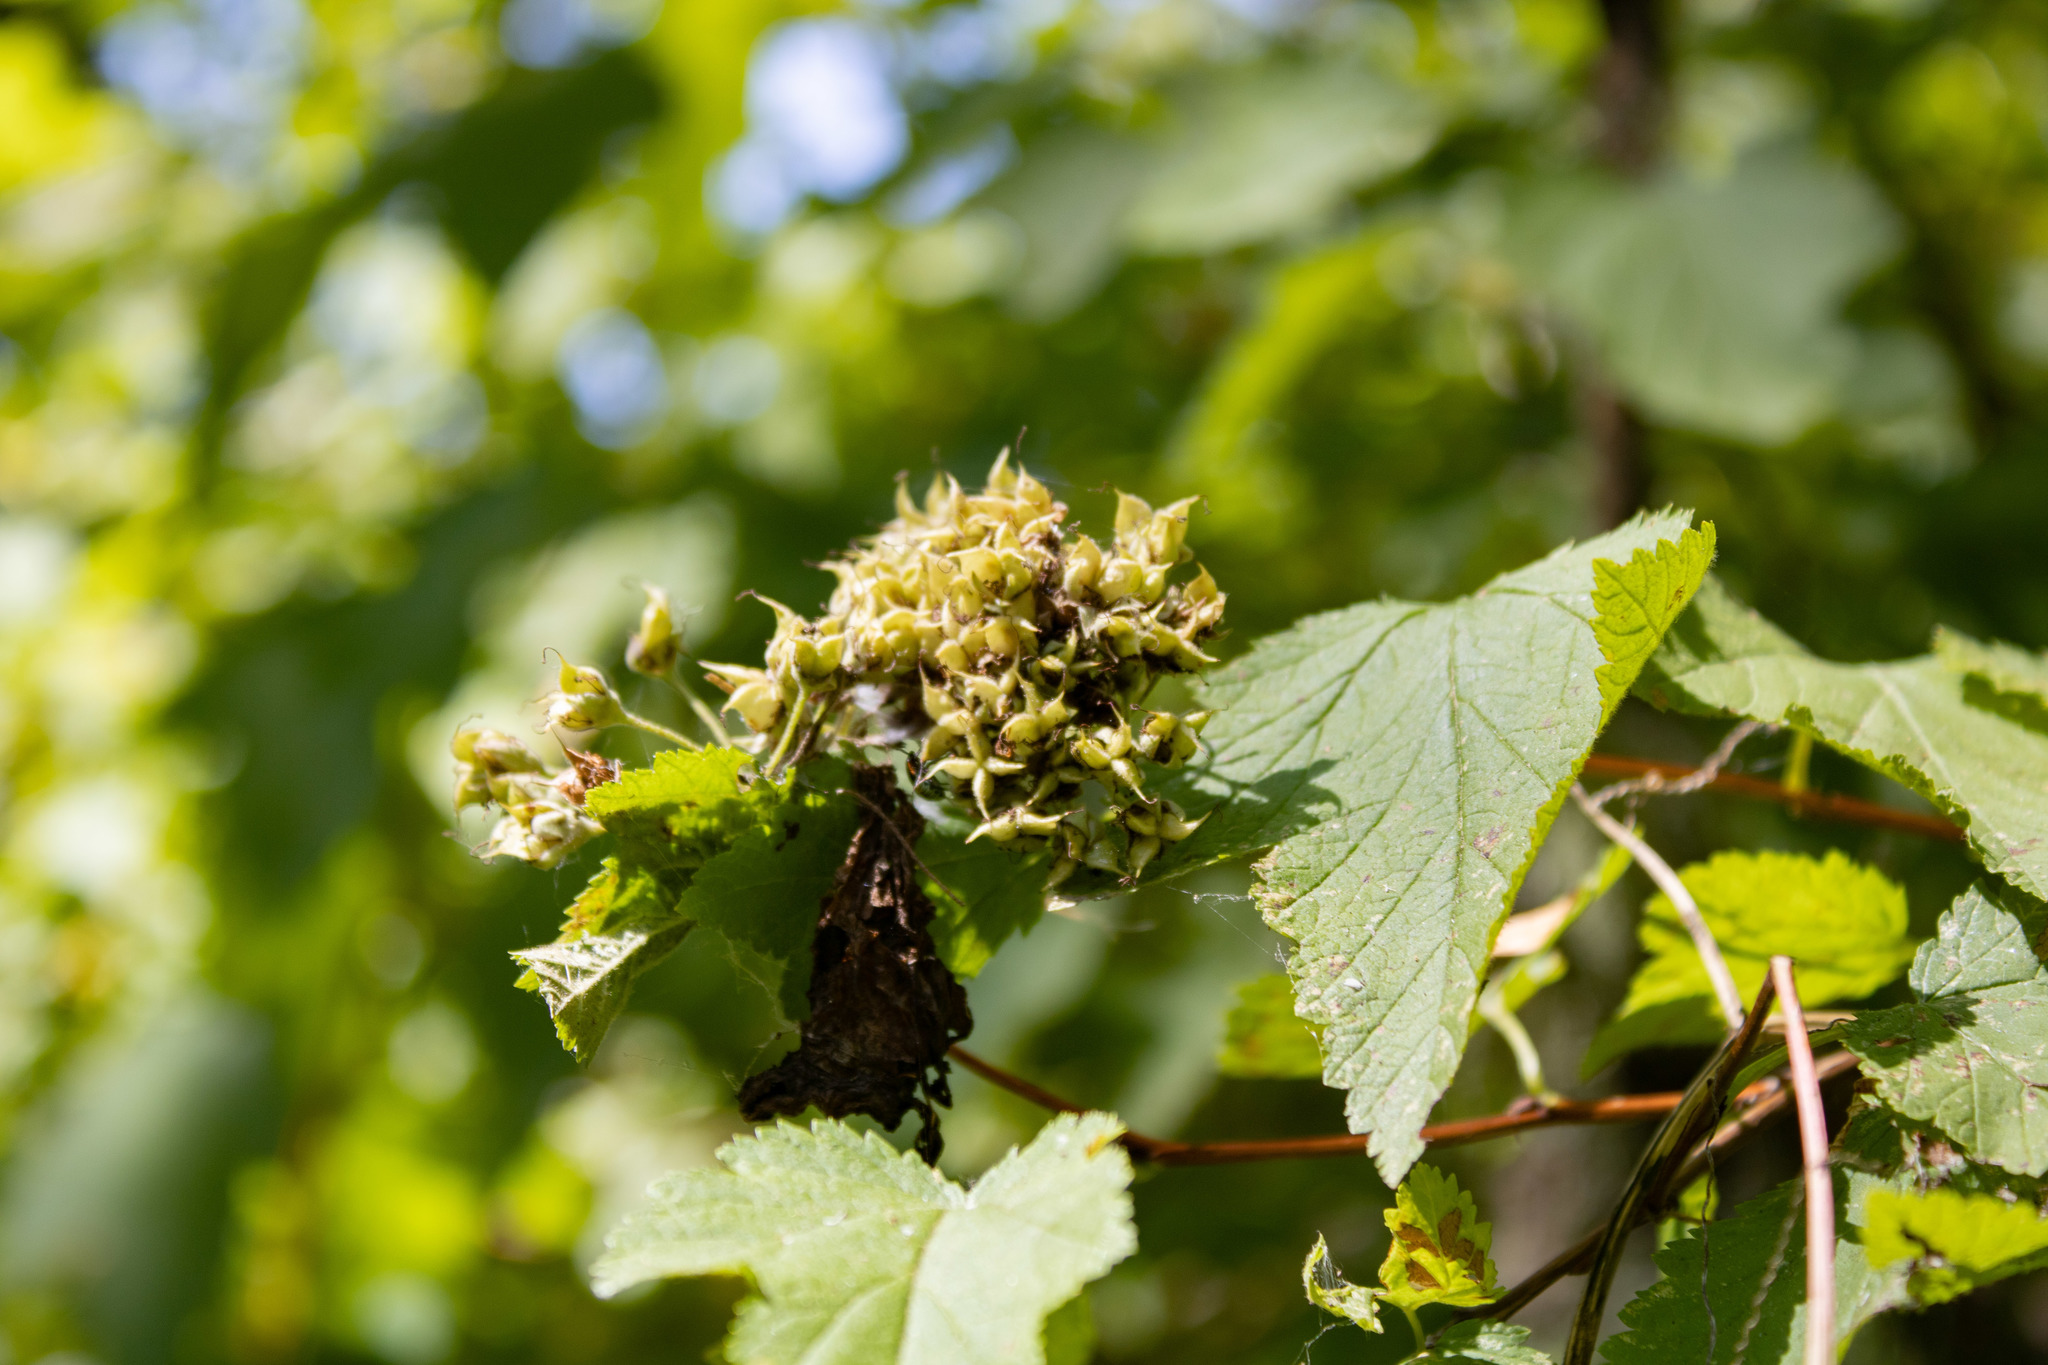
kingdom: Plantae
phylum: Tracheophyta
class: Magnoliopsida
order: Rosales
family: Rosaceae
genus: Physocarpus
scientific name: Physocarpus capitatus
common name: Pacific ninebark
